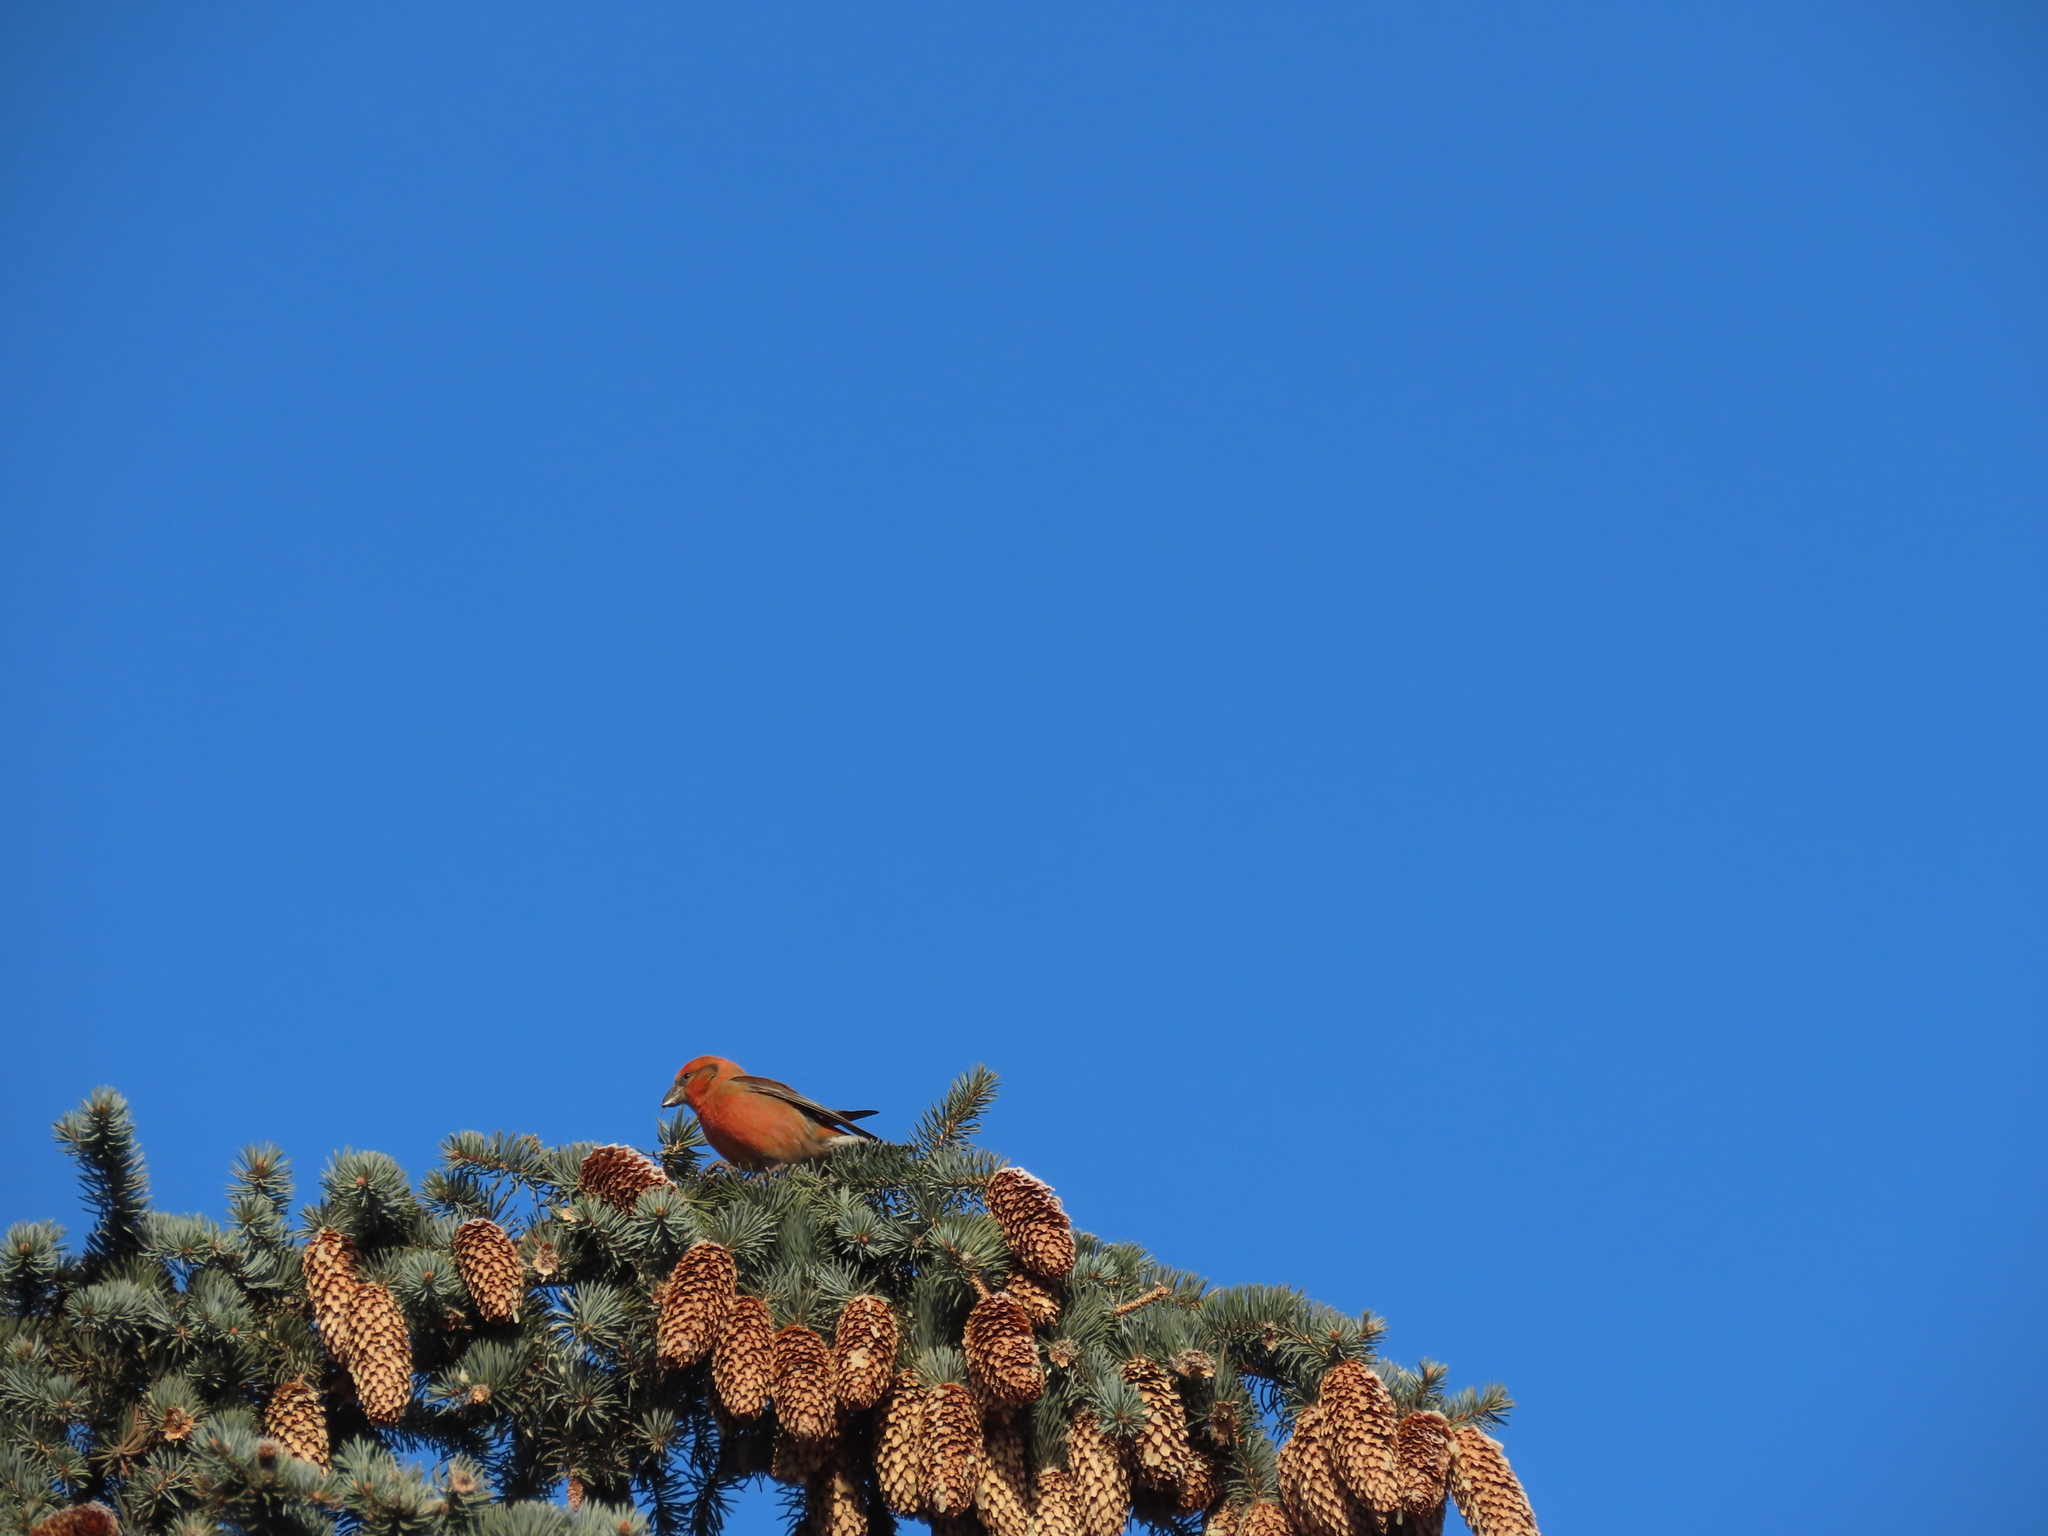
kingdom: Animalia
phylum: Chordata
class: Aves
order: Passeriformes
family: Fringillidae
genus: Loxia
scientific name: Loxia curvirostra
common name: Red crossbill
